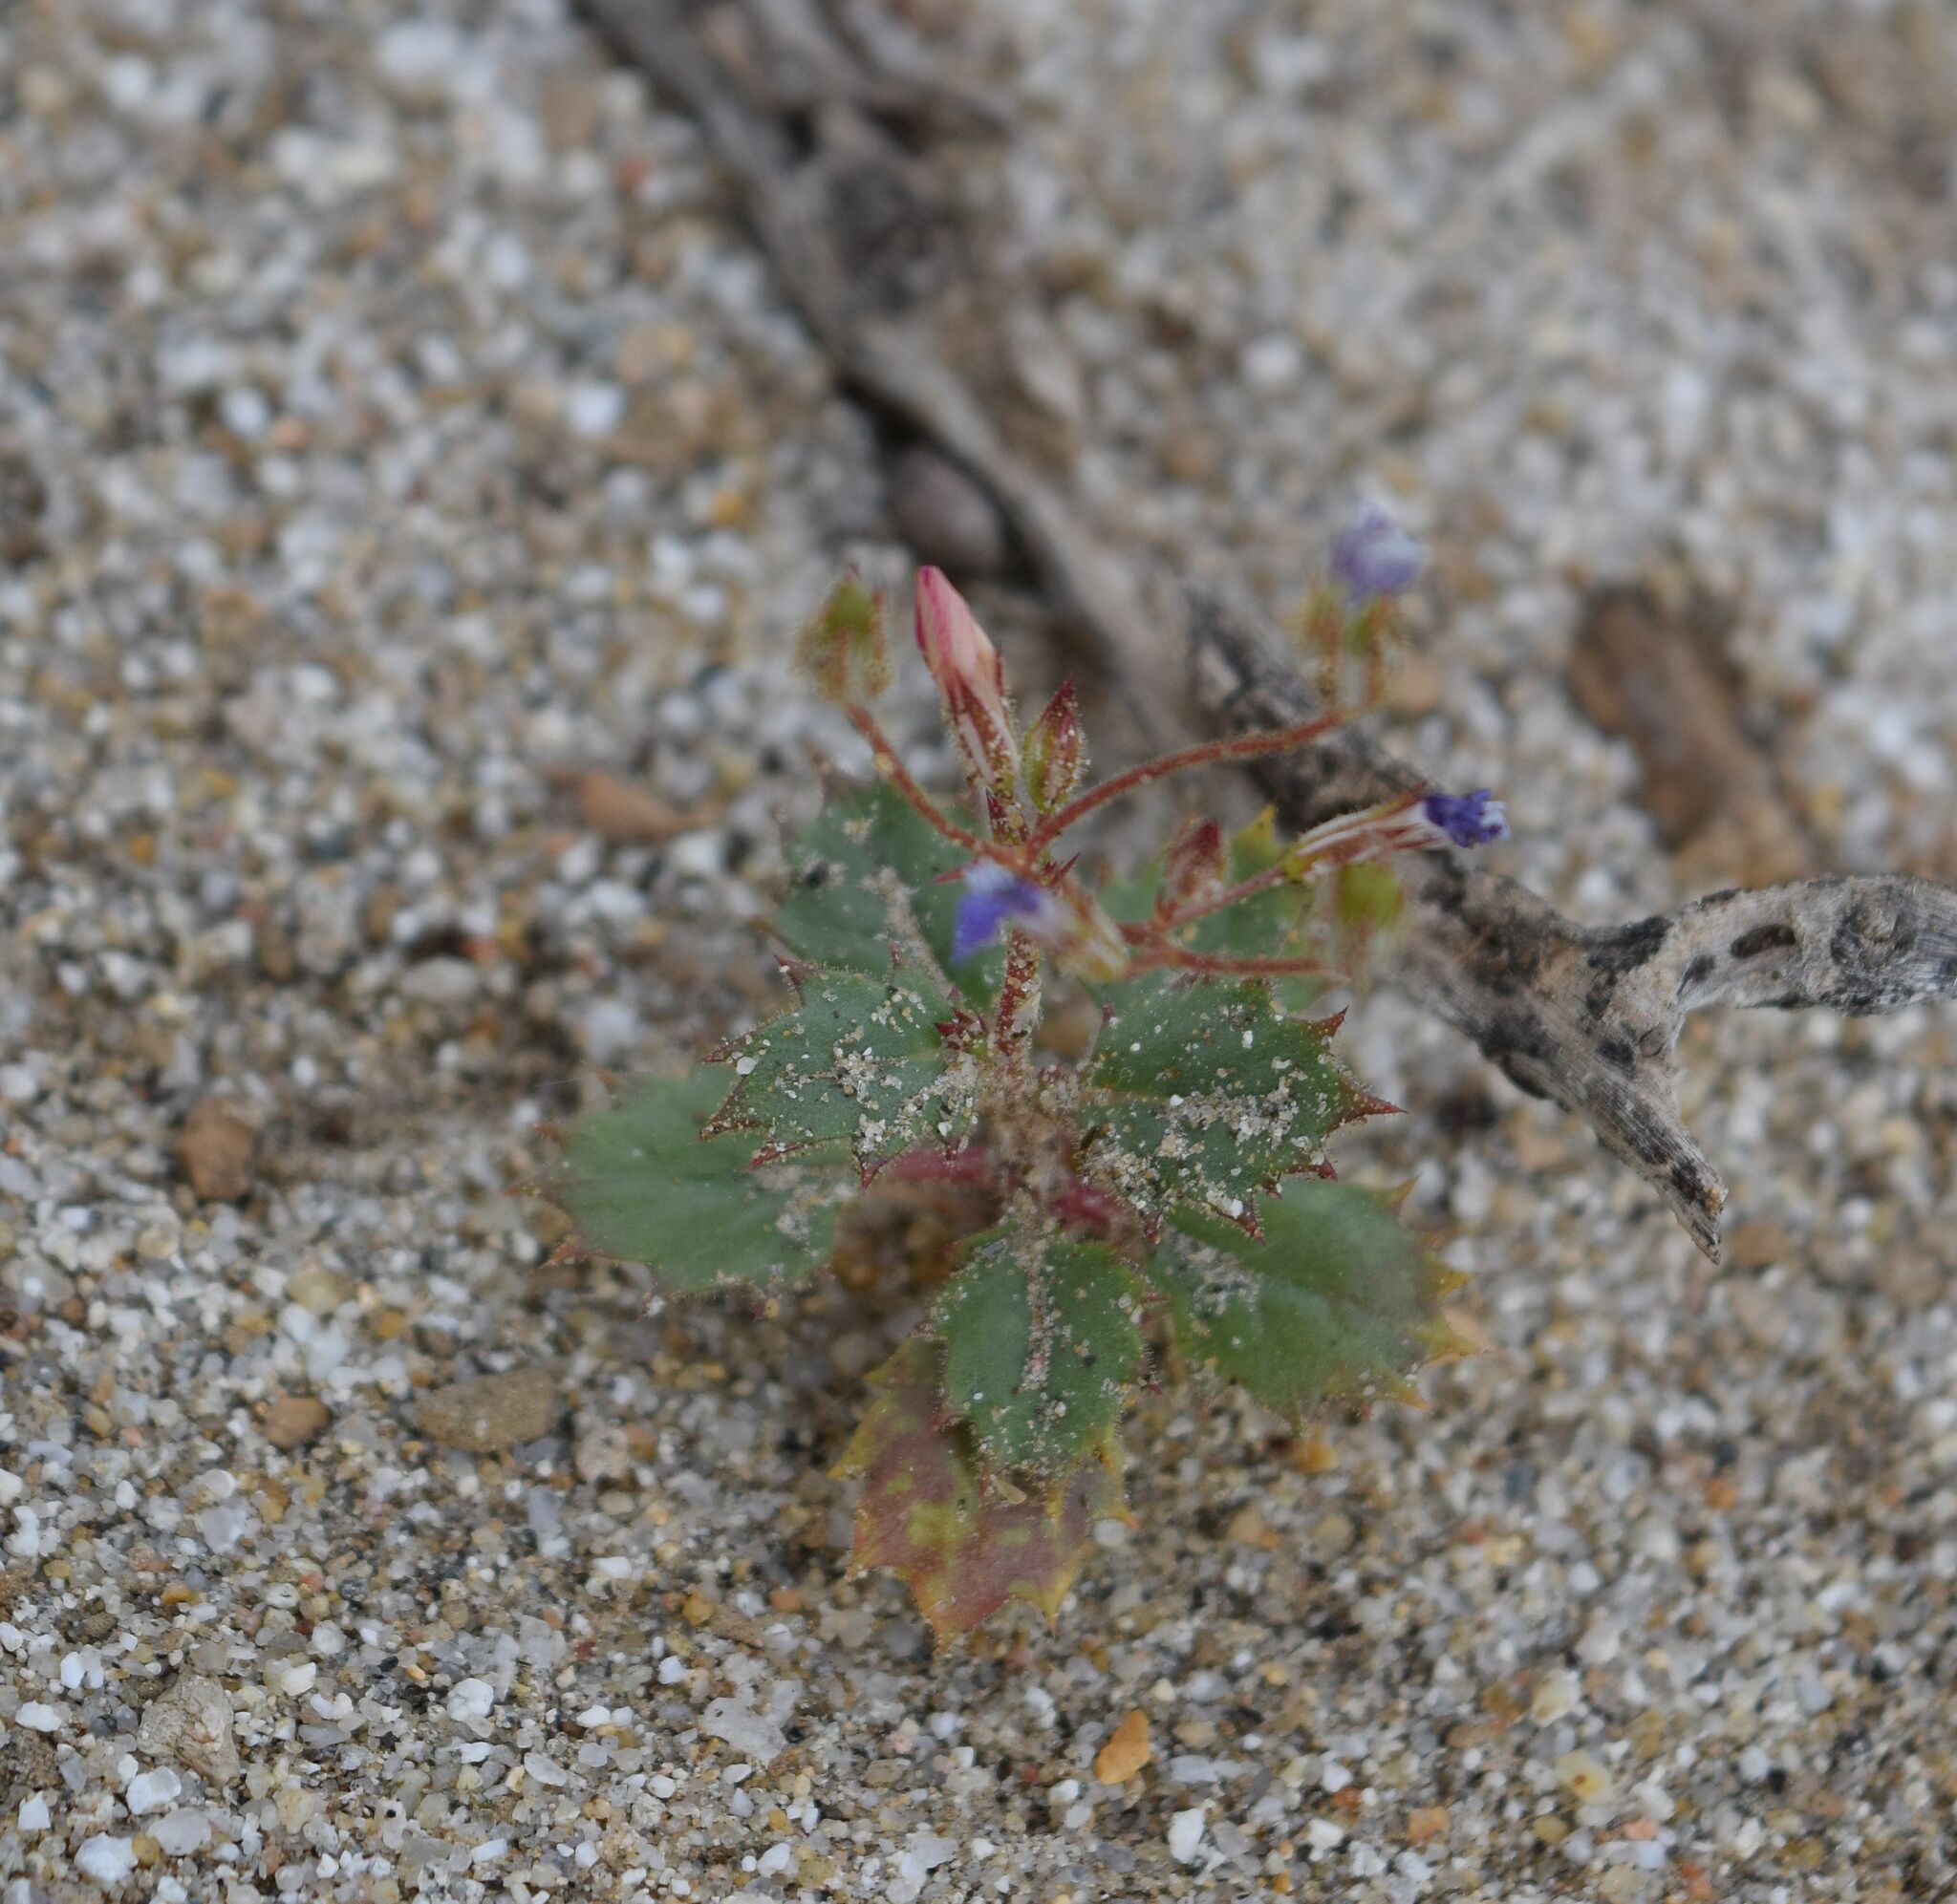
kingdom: Plantae
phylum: Tracheophyta
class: Magnoliopsida
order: Ericales
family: Polemoniaceae
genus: Aliciella
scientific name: Aliciella latifolia
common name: Broad-leaf gilia
